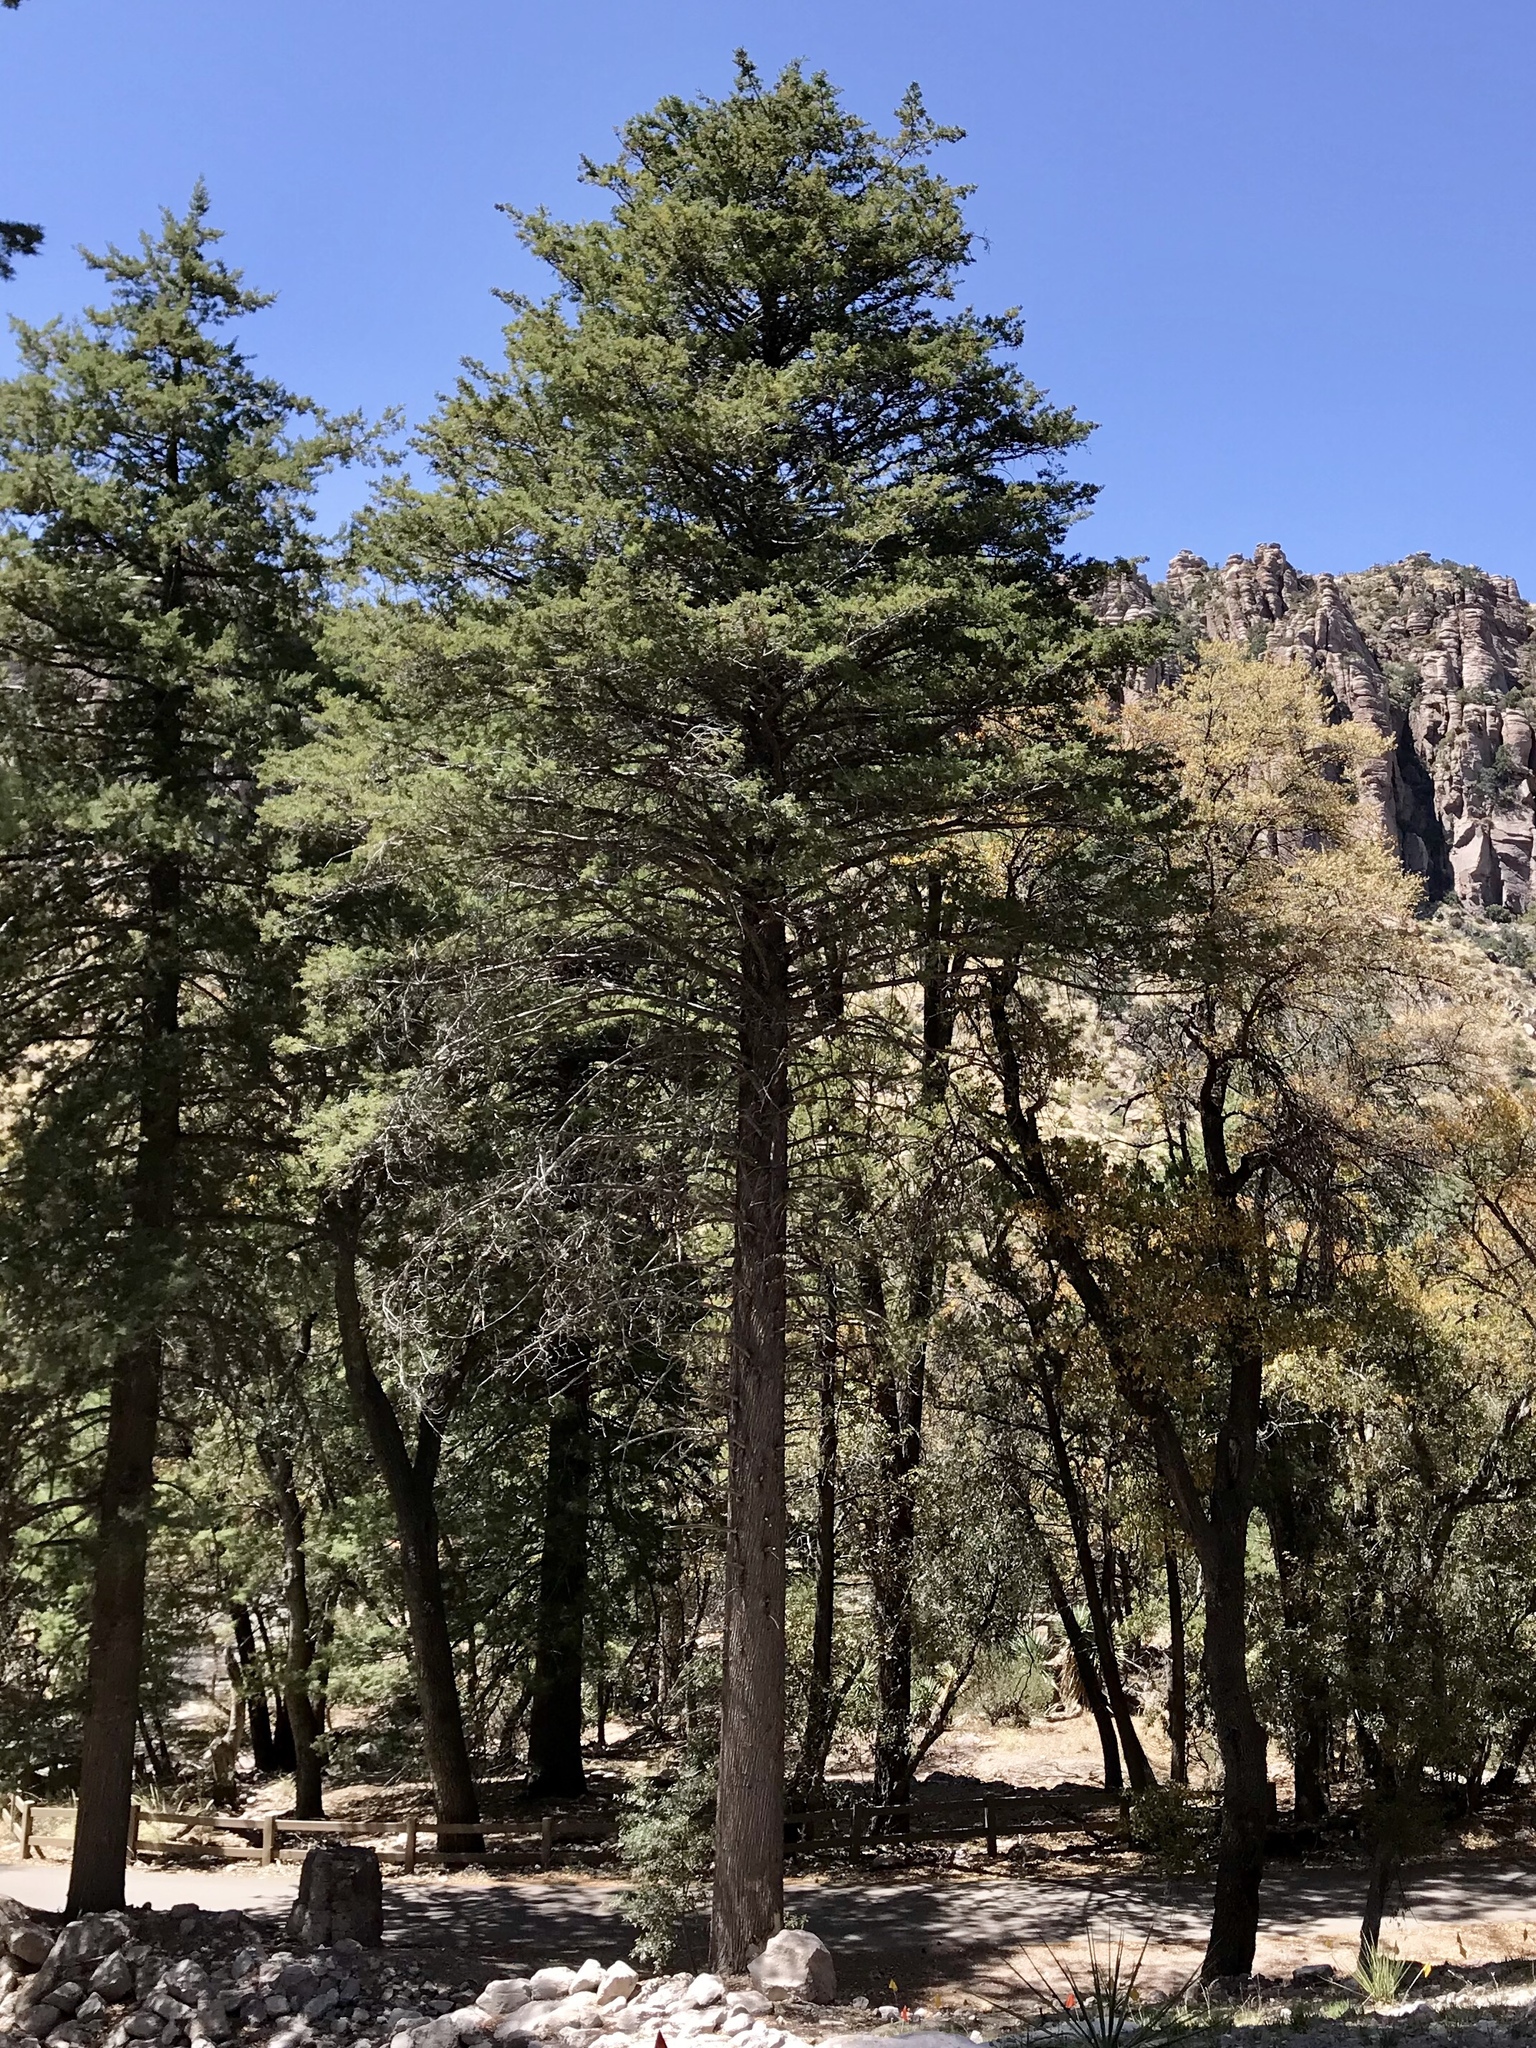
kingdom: Plantae
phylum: Tracheophyta
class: Pinopsida
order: Pinales
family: Cupressaceae
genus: Cupressus
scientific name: Cupressus arizonica
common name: Arizona cypress
